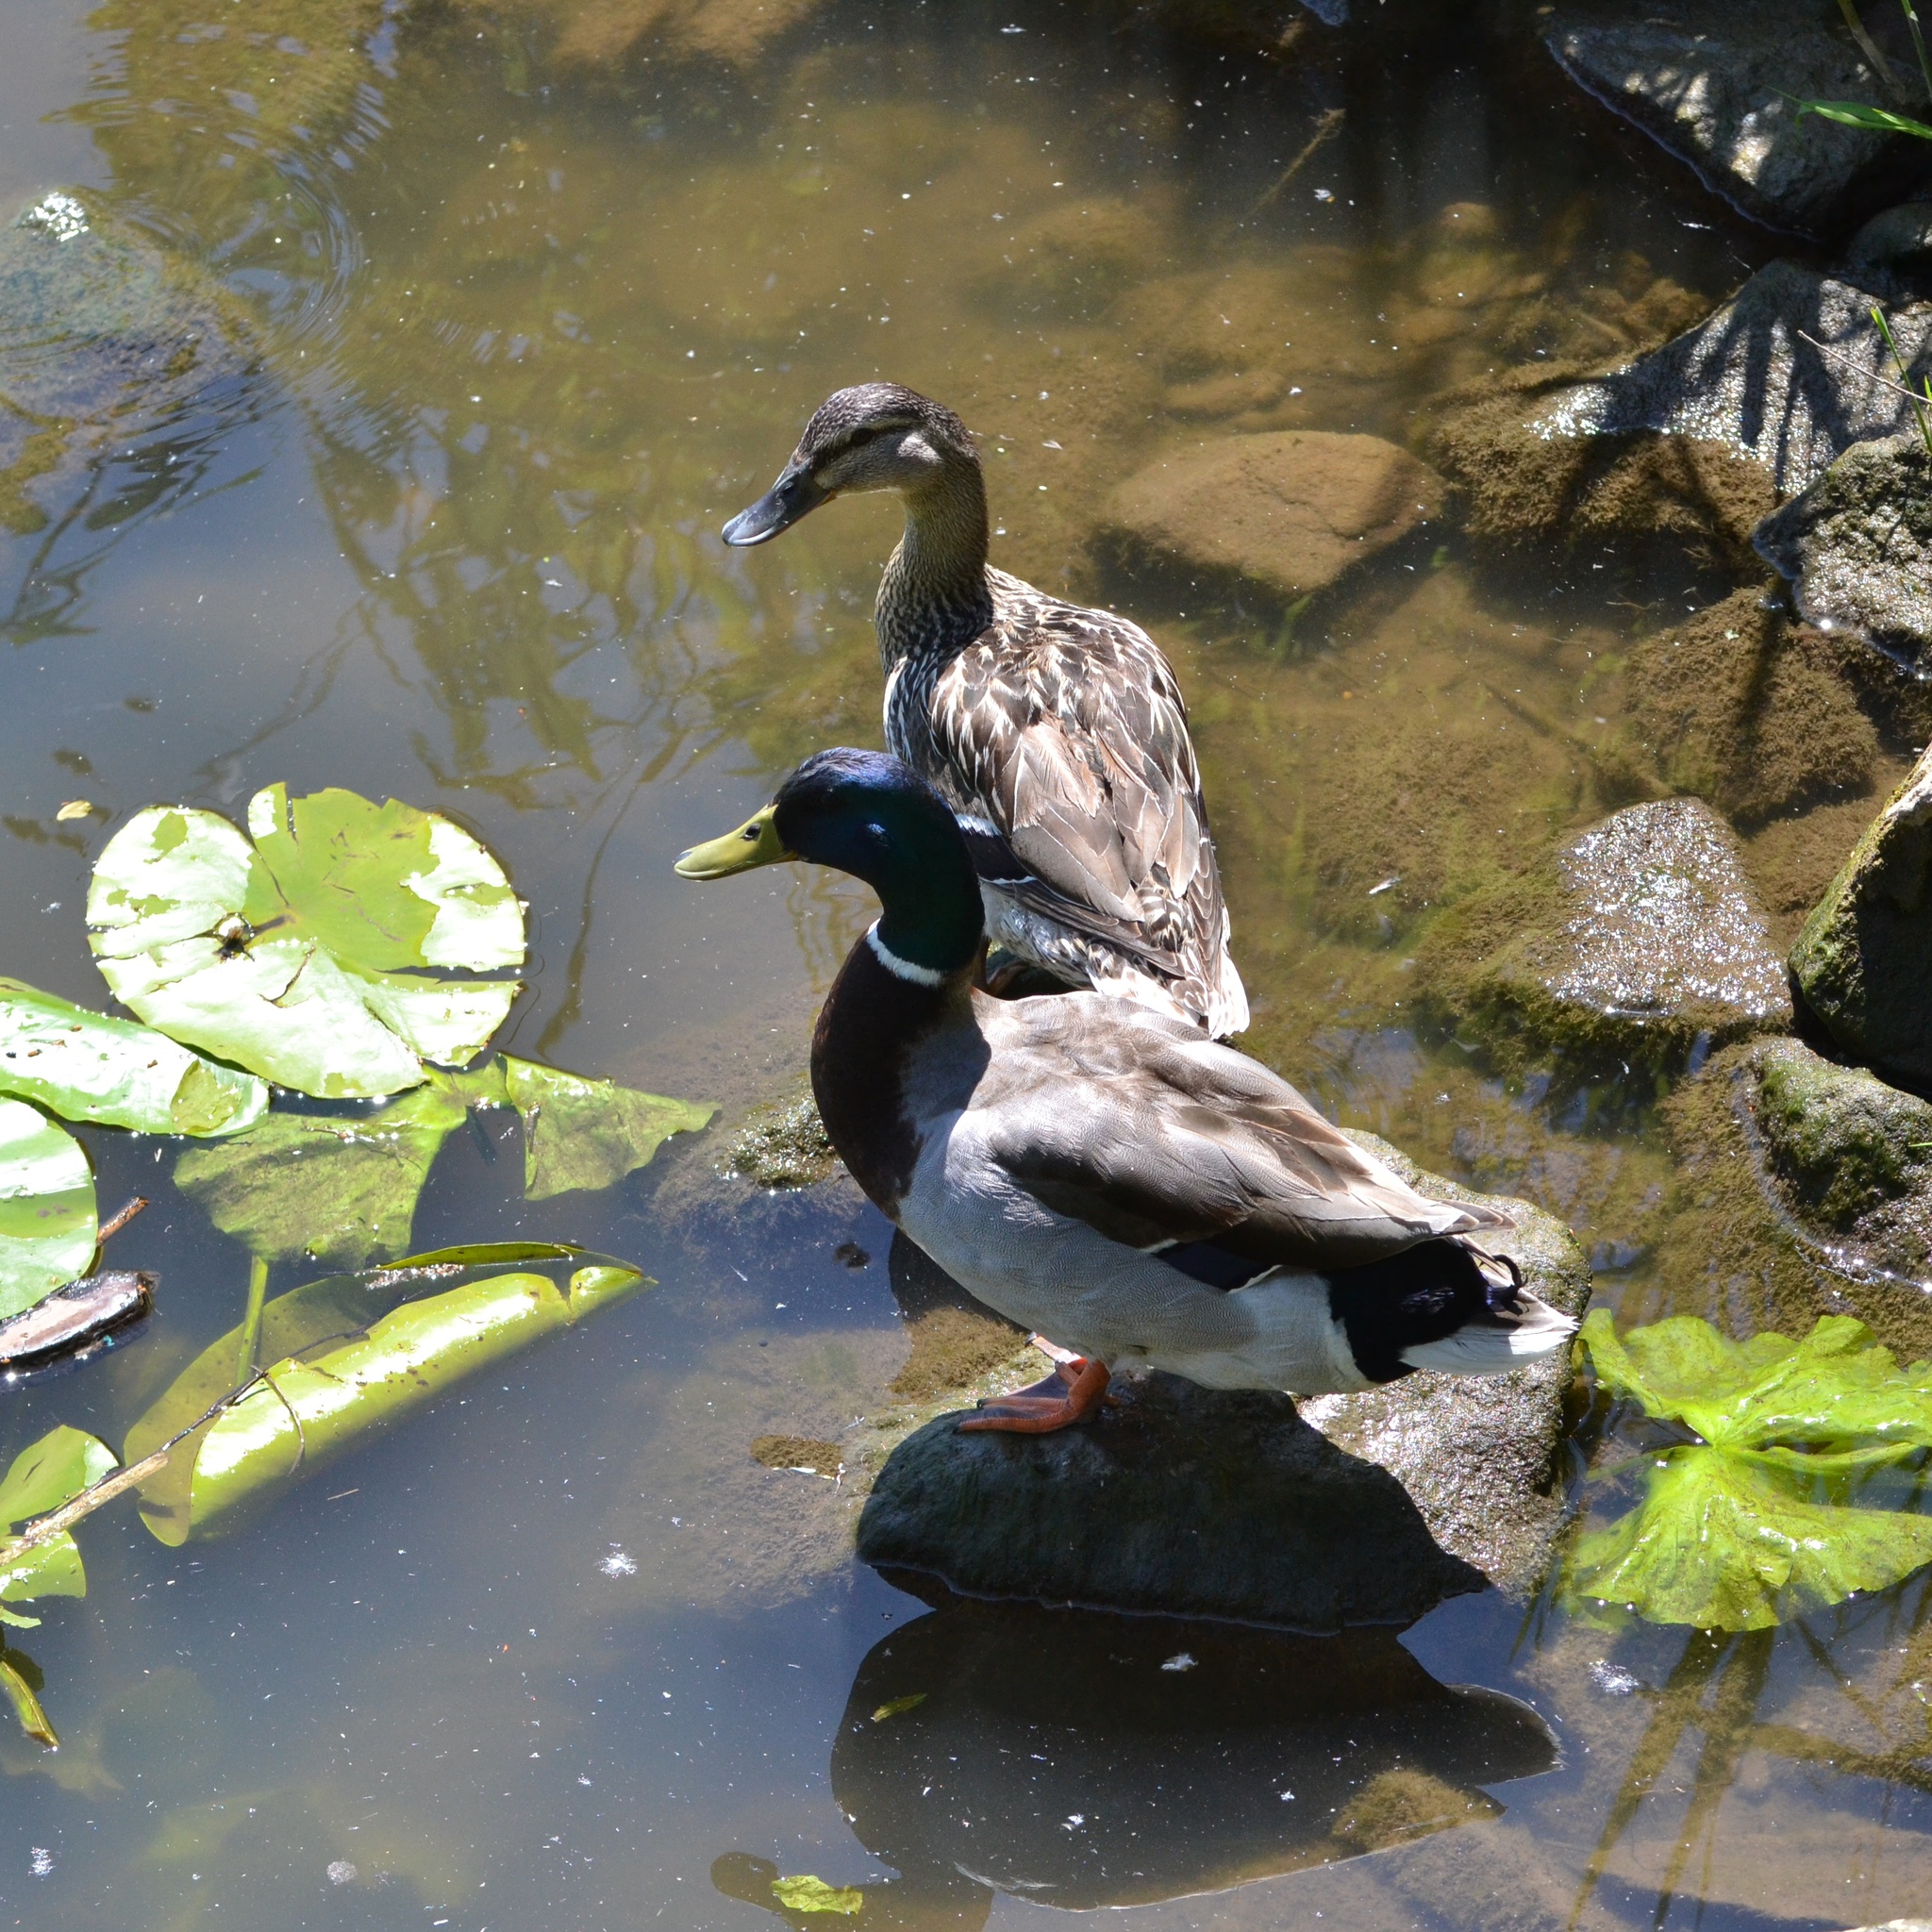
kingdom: Animalia
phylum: Chordata
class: Aves
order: Anseriformes
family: Anatidae
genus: Anas
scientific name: Anas platyrhynchos
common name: Mallard
